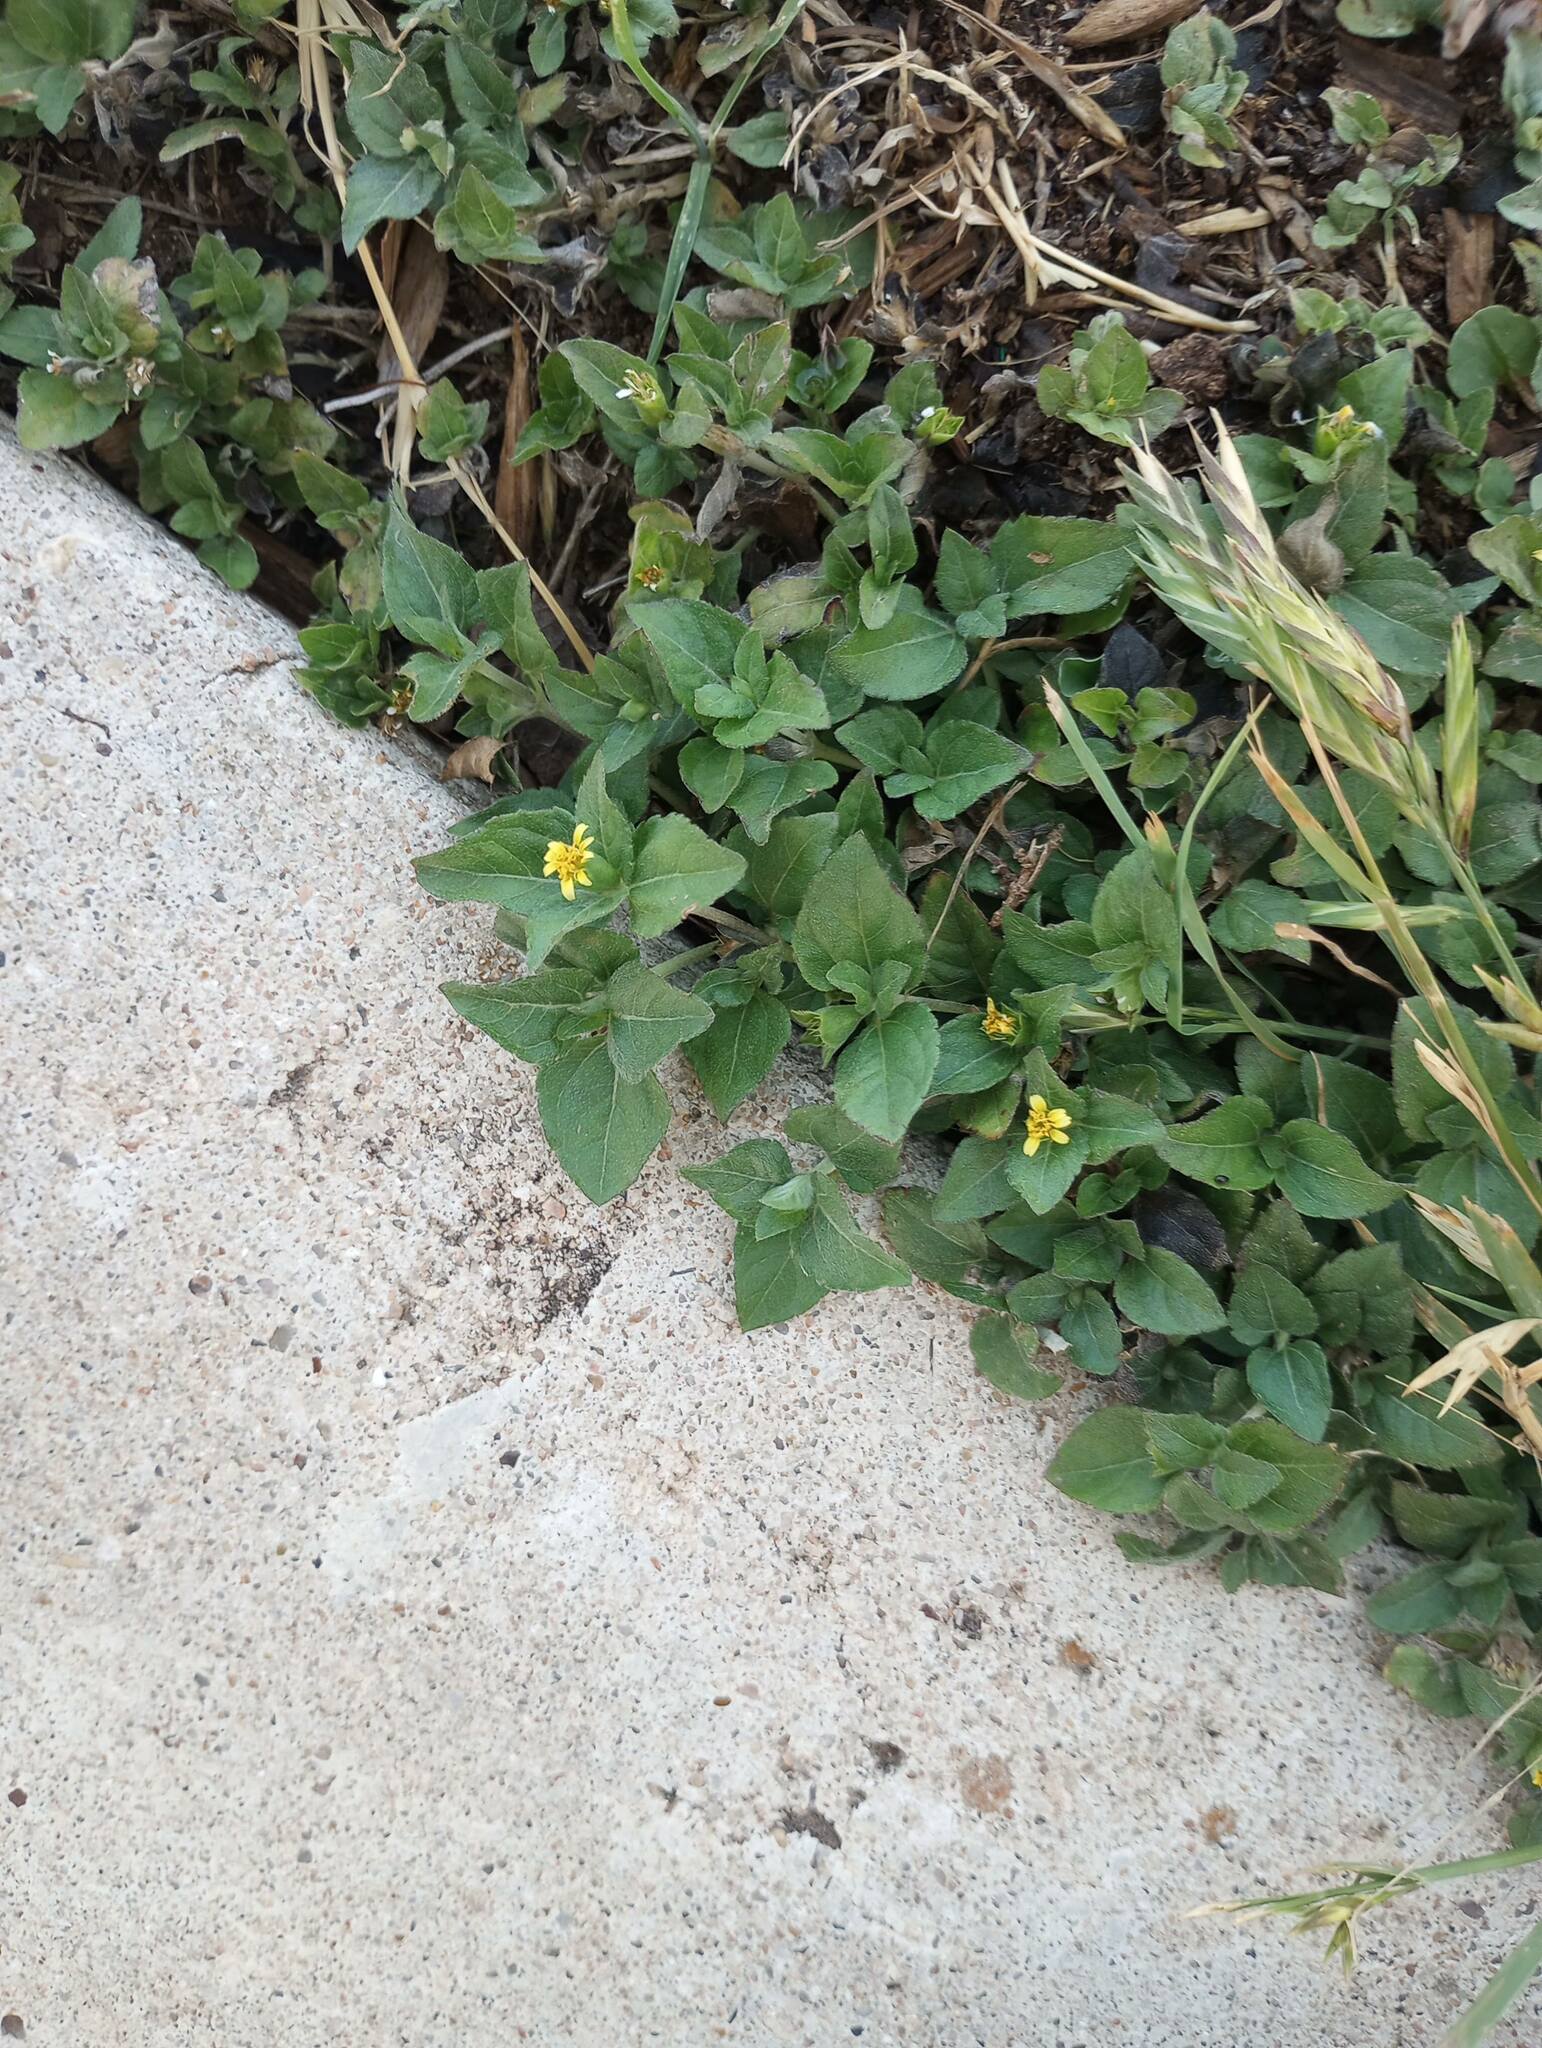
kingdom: Plantae
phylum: Tracheophyta
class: Magnoliopsida
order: Asterales
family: Asteraceae
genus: Calyptocarpus
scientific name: Calyptocarpus vialis
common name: Straggler daisy
